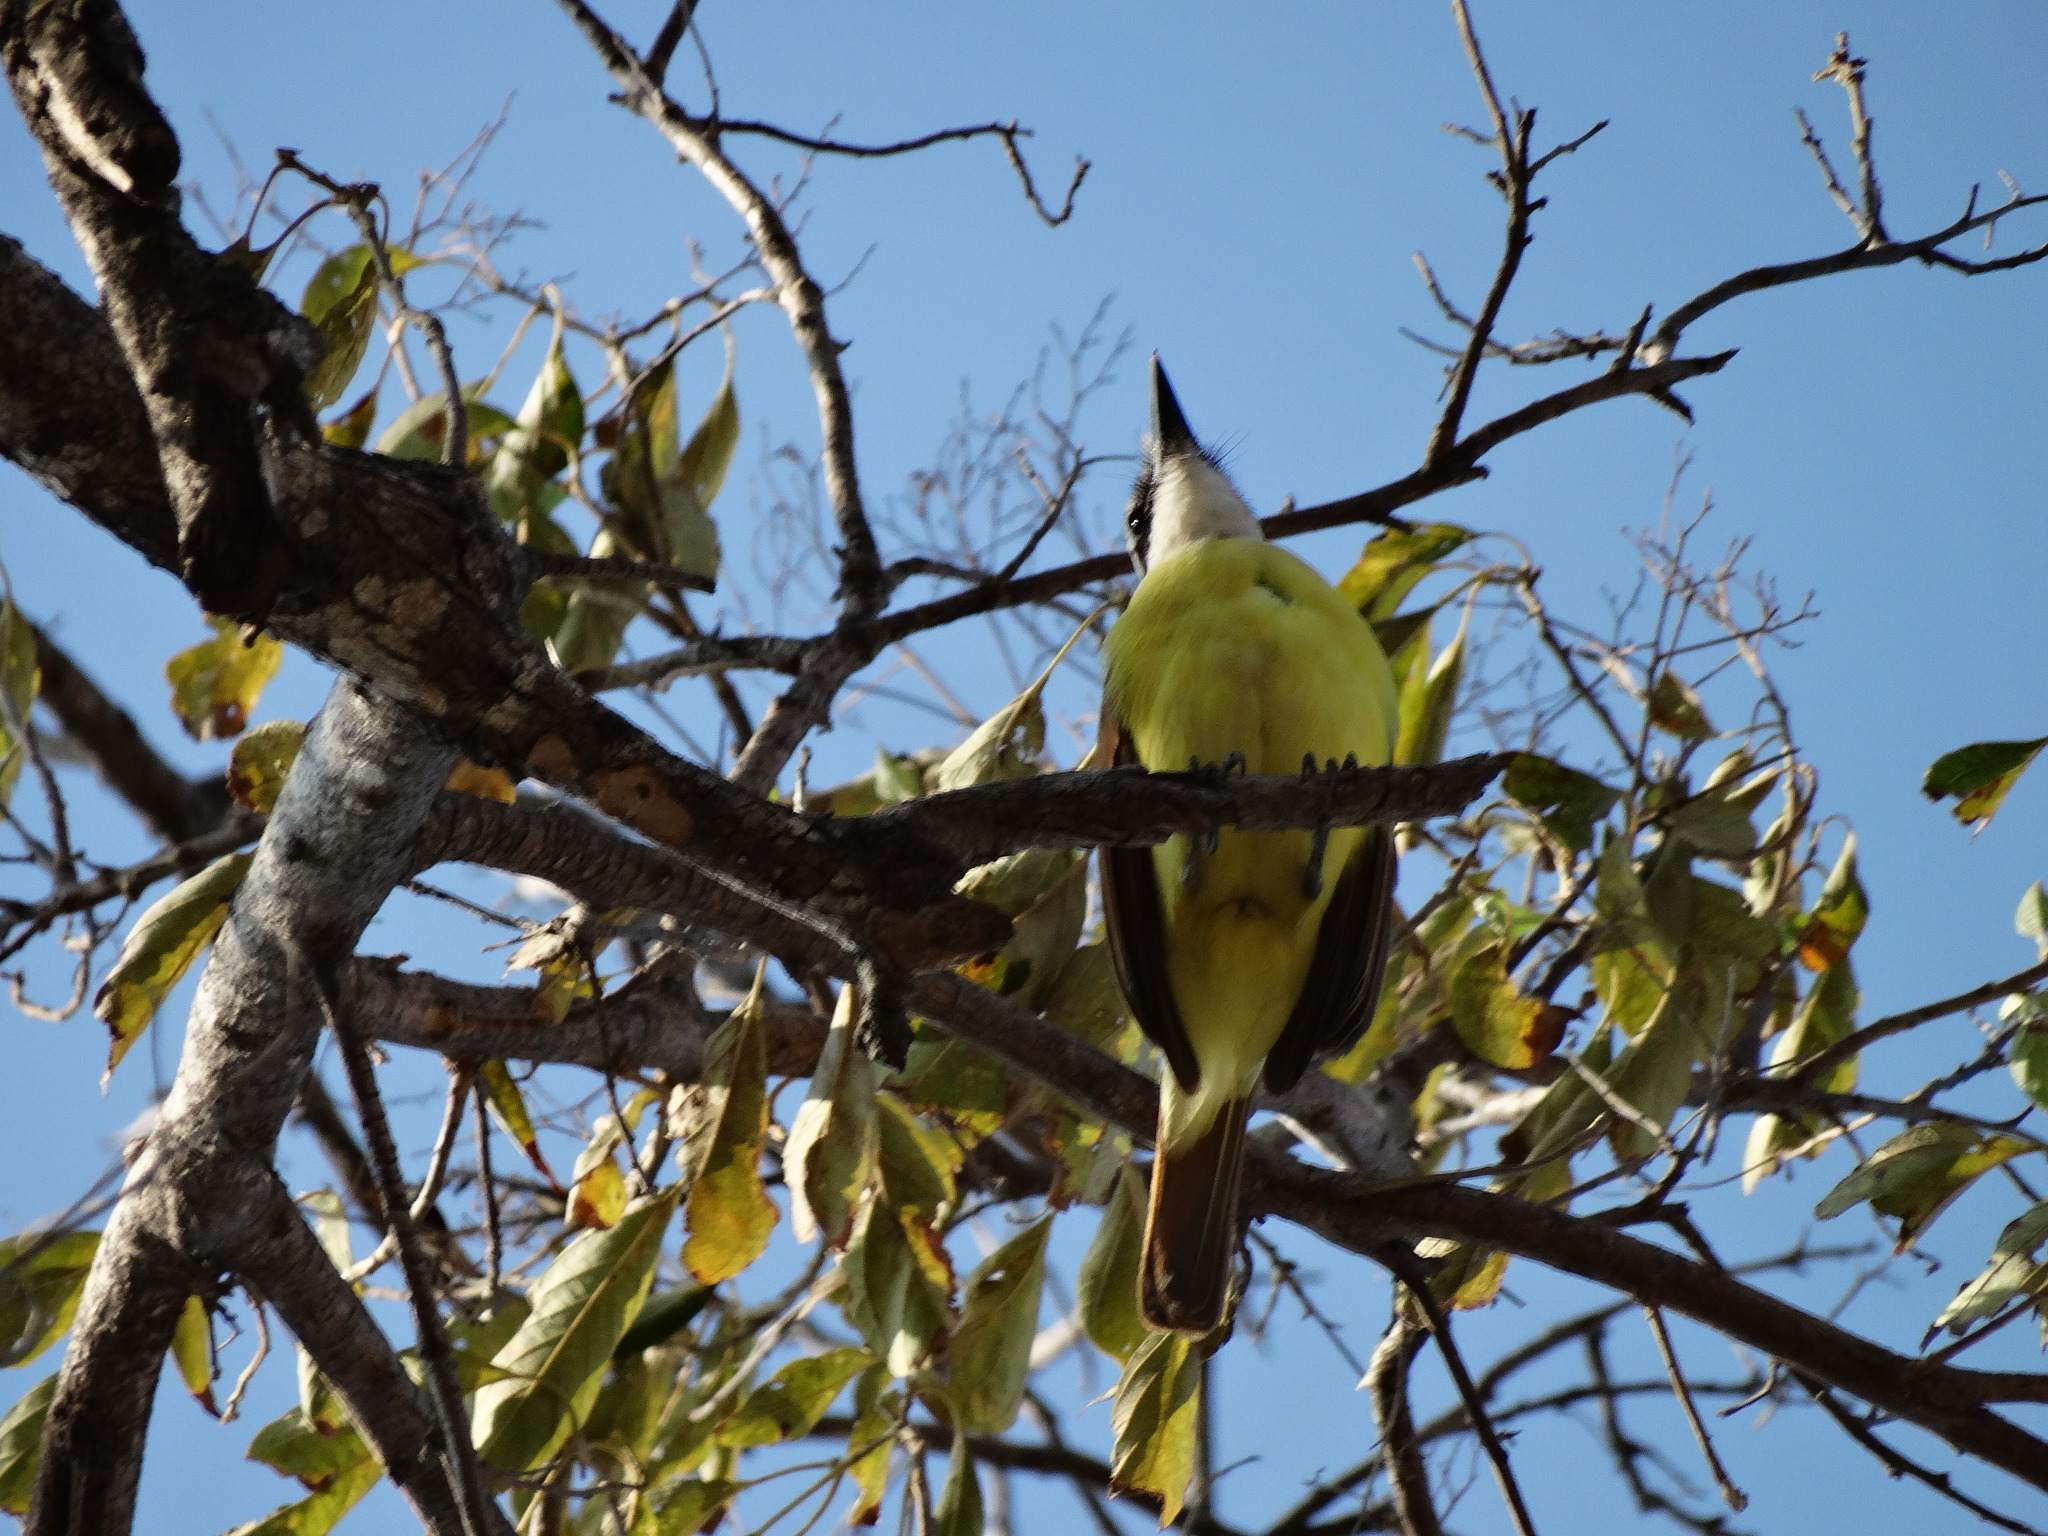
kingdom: Animalia
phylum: Chordata
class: Aves
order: Passeriformes
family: Tyrannidae
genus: Pitangus
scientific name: Pitangus sulphuratus
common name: Great kiskadee
